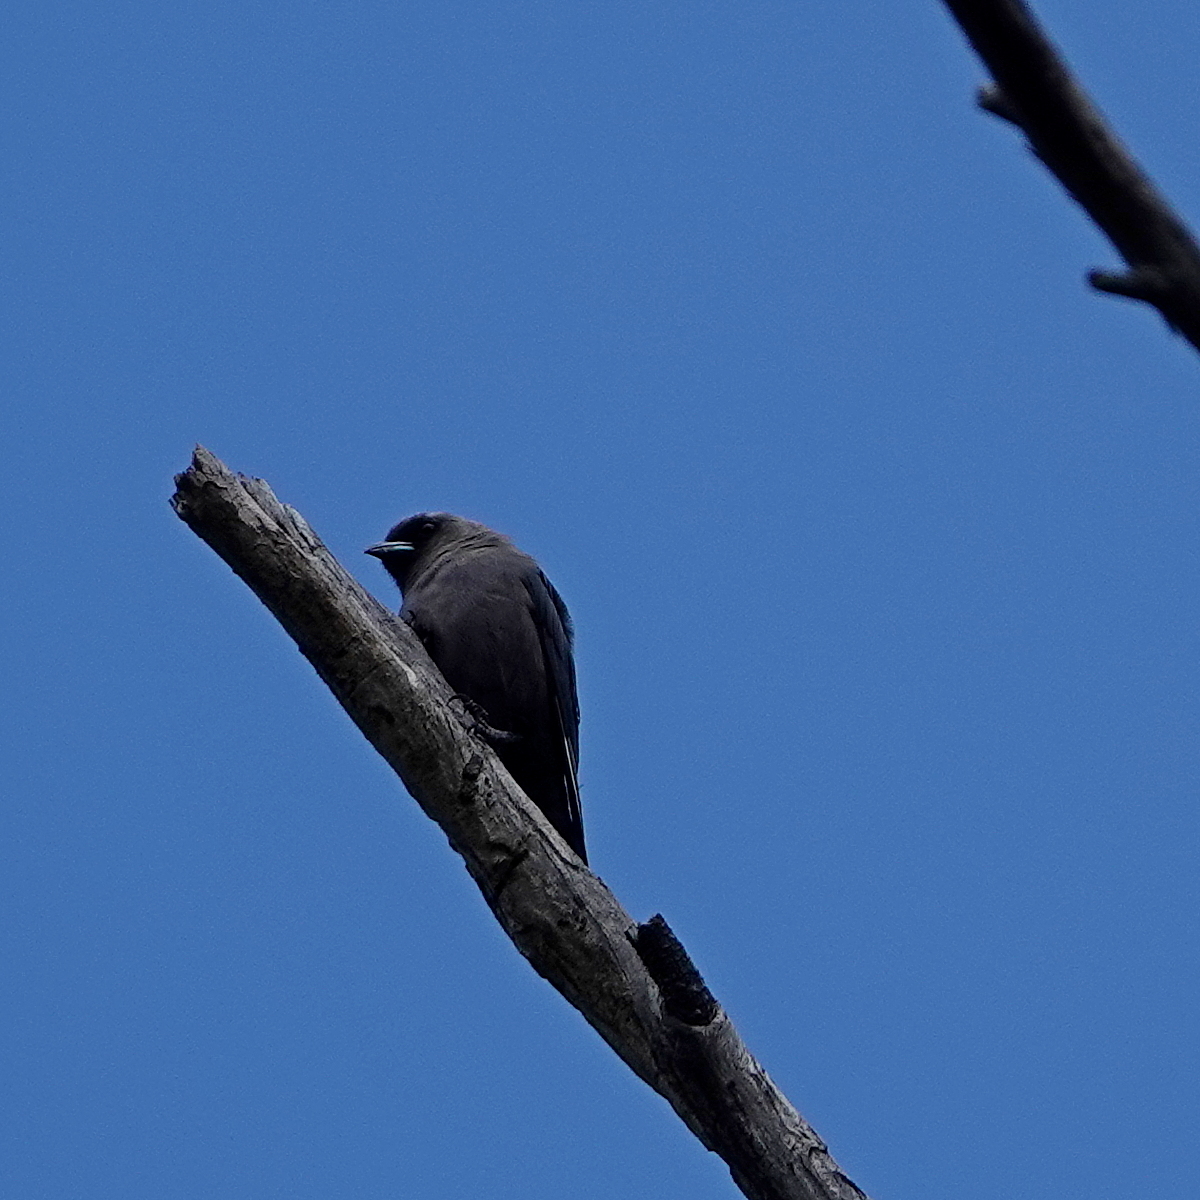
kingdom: Animalia
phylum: Chordata
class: Aves
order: Passeriformes
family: Artamidae
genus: Artamus
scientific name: Artamus cyanopterus
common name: Dusky woodswallow
